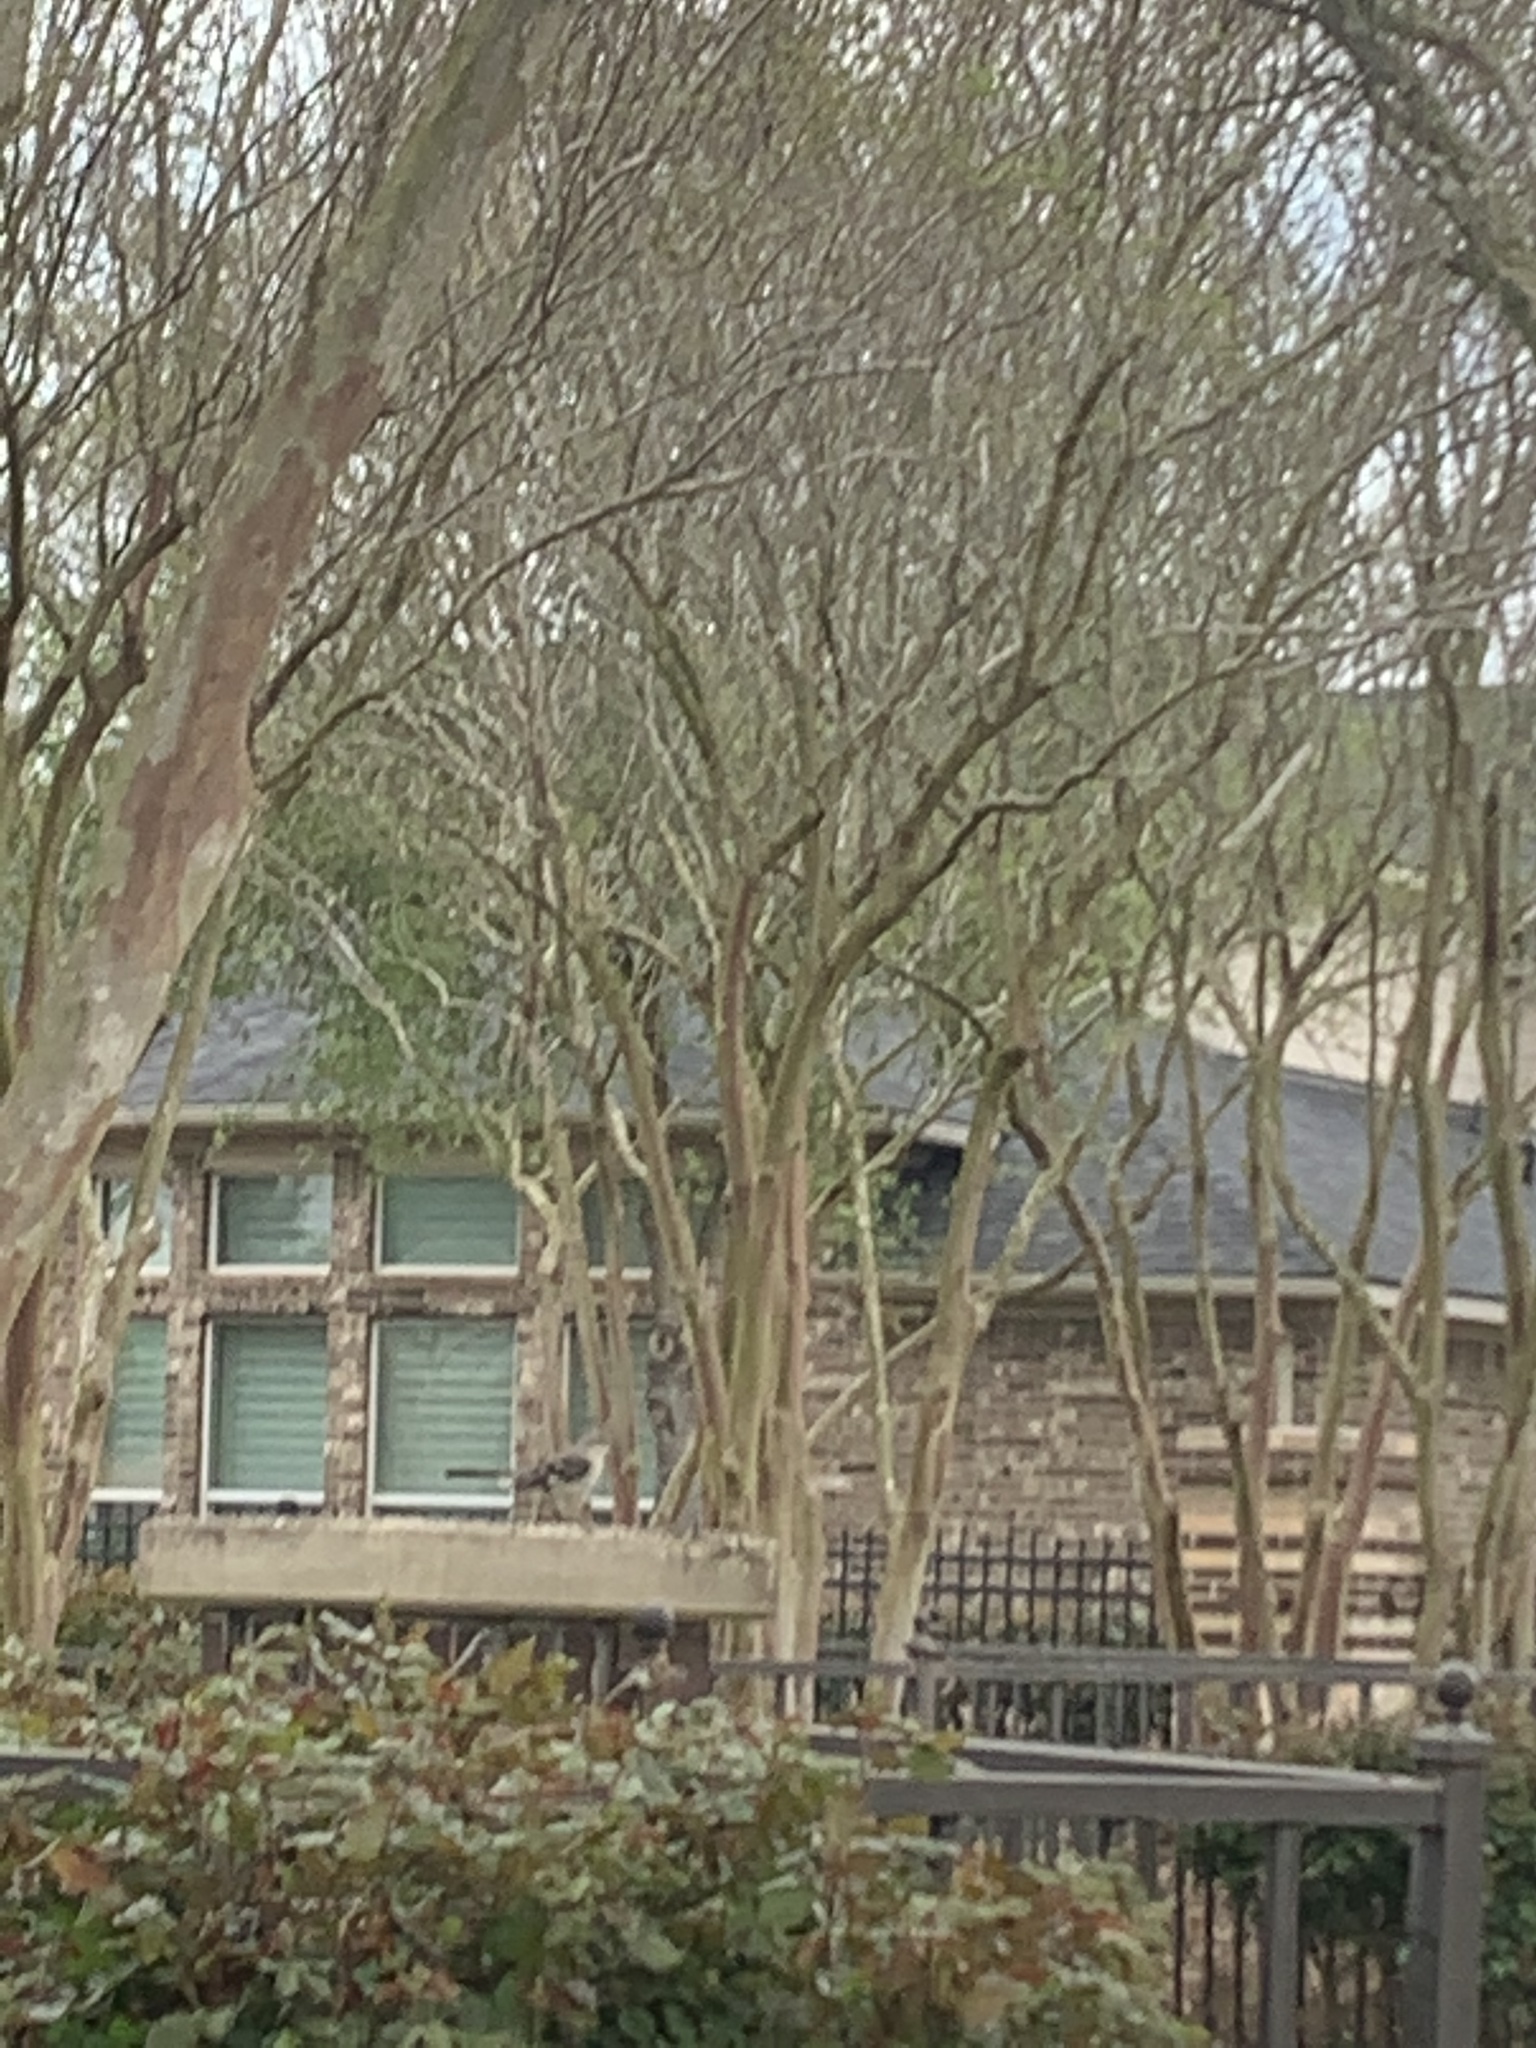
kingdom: Animalia
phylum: Chordata
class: Aves
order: Passeriformes
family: Mimidae
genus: Mimus
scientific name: Mimus polyglottos
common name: Northern mockingbird
